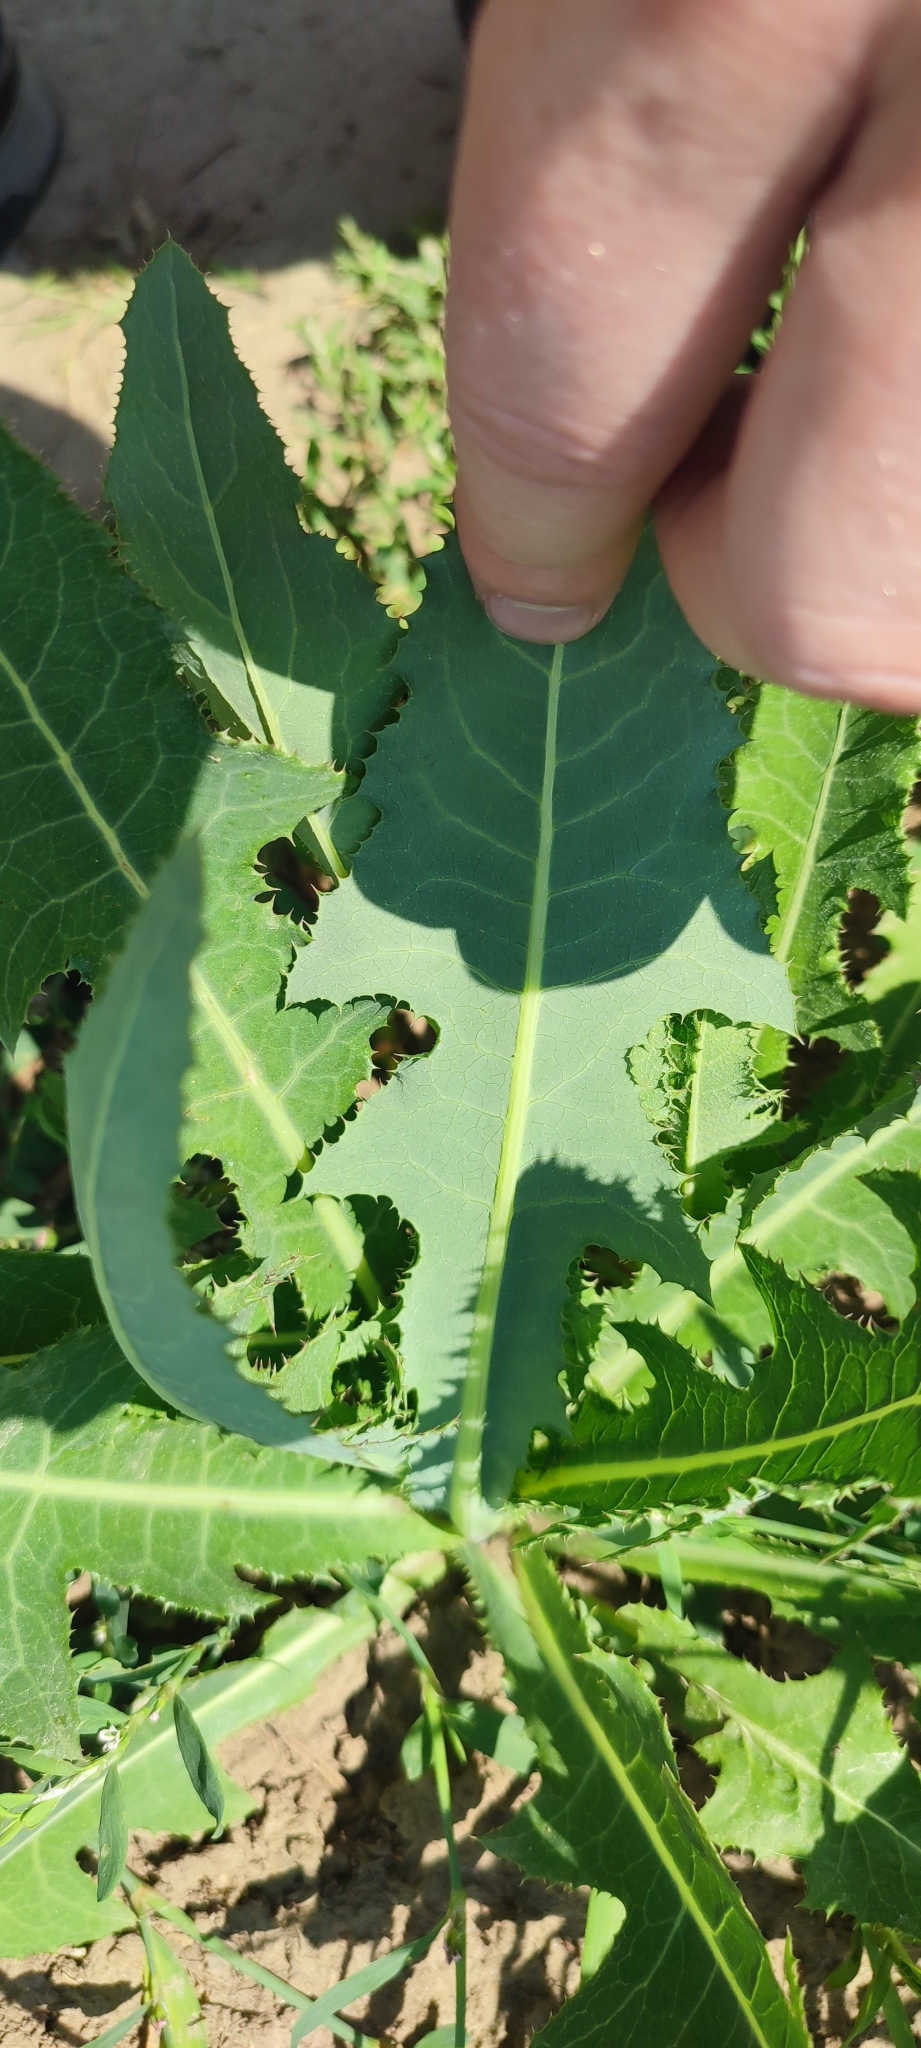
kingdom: Plantae
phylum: Tracheophyta
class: Magnoliopsida
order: Asterales
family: Asteraceae
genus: Sonchus
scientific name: Sonchus arvensis
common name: Perennial sow-thistle
